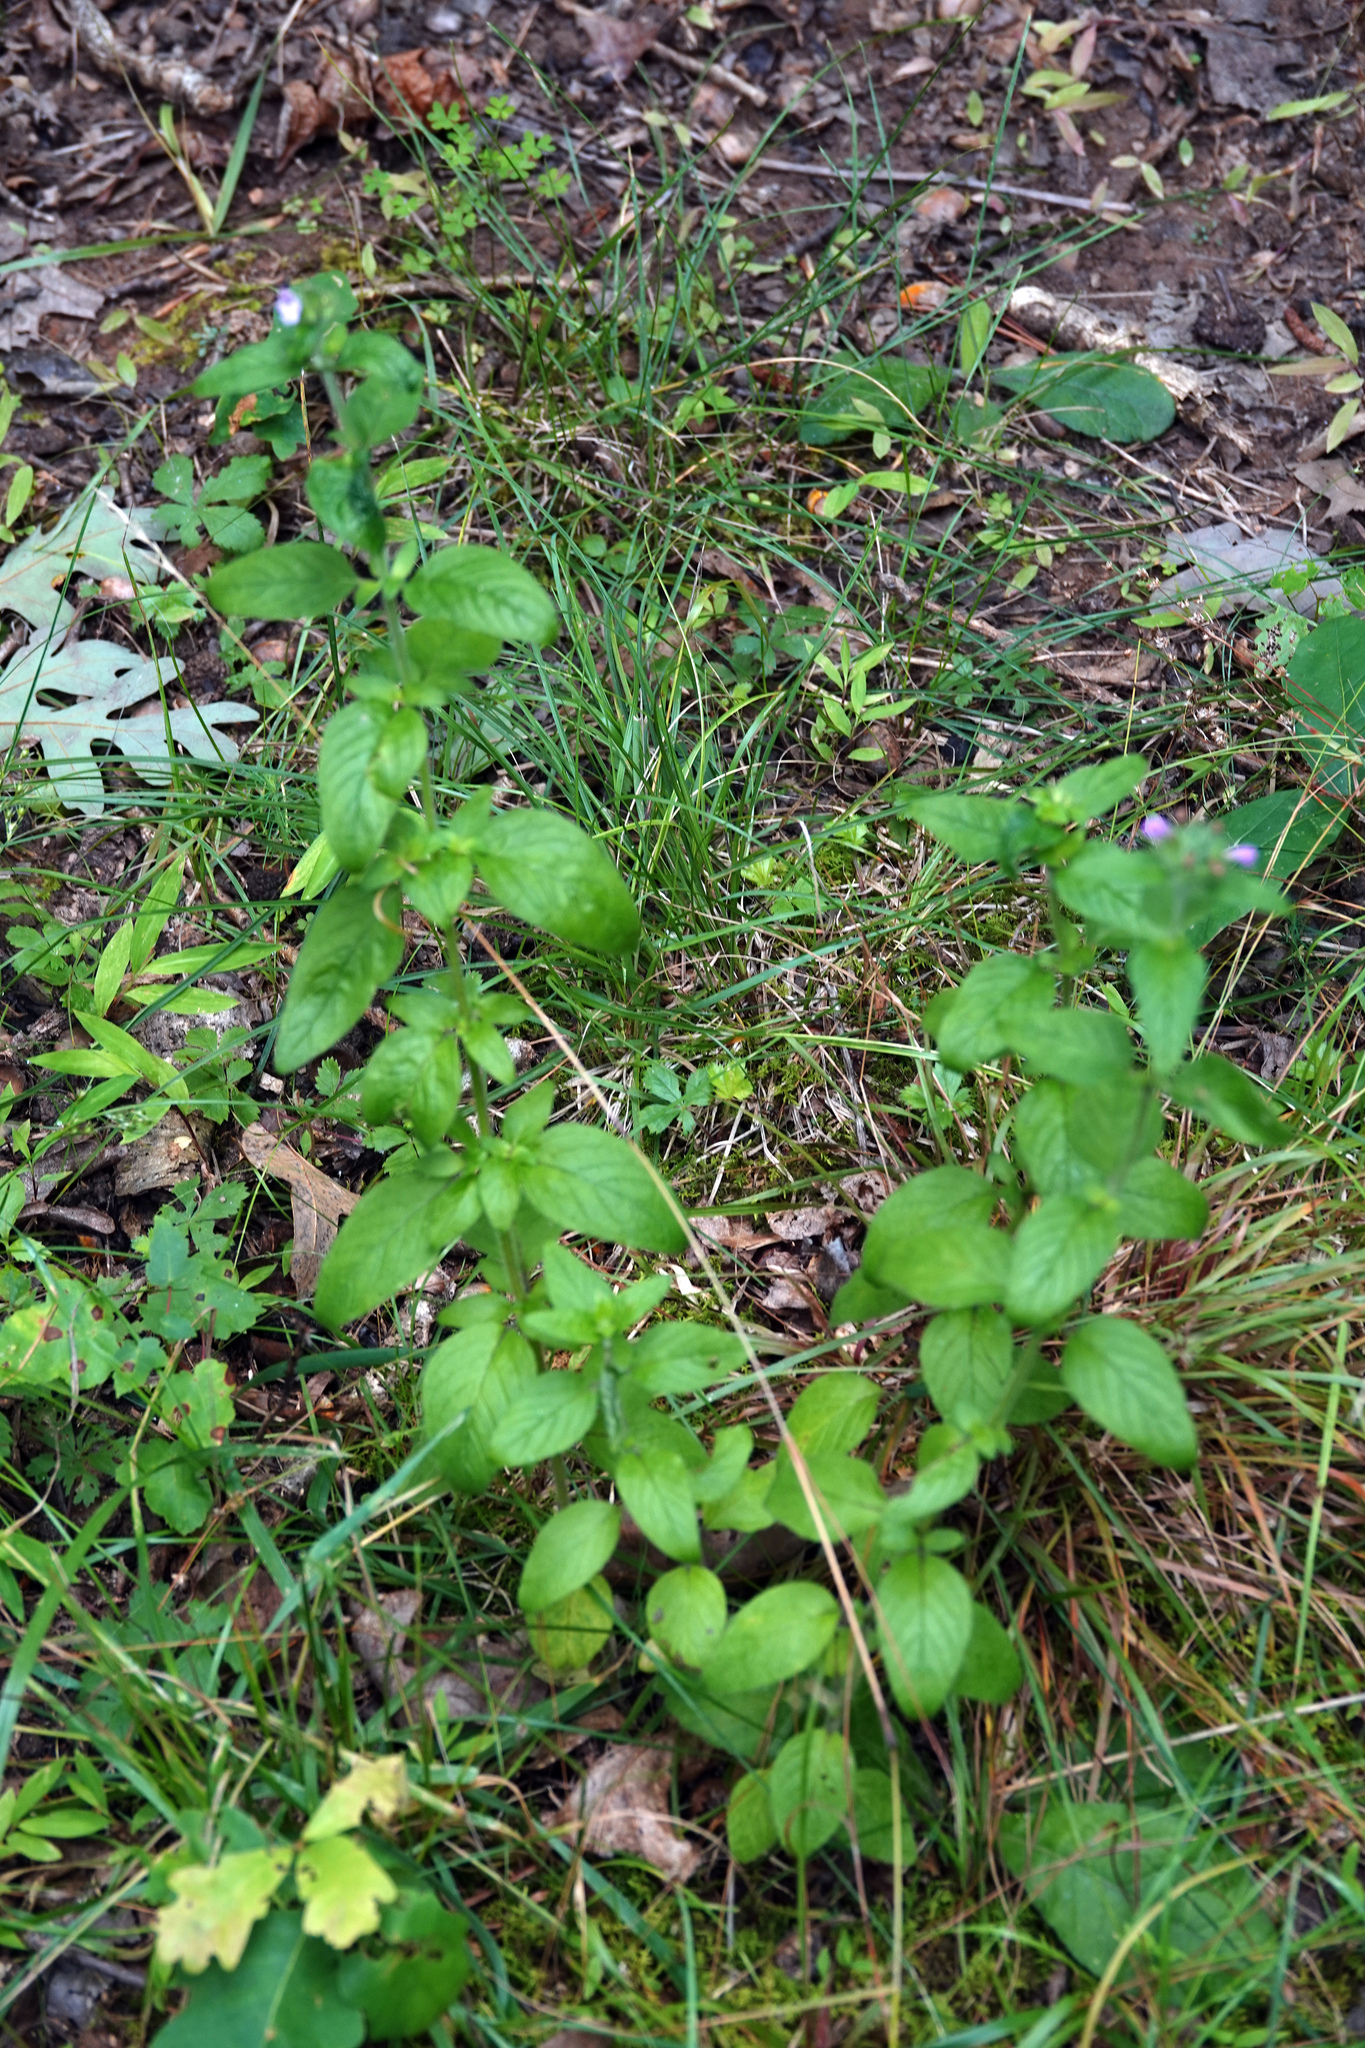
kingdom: Plantae
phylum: Tracheophyta
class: Magnoliopsida
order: Lamiales
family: Lamiaceae
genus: Clinopodium
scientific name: Clinopodium vulgare
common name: Wild basil
